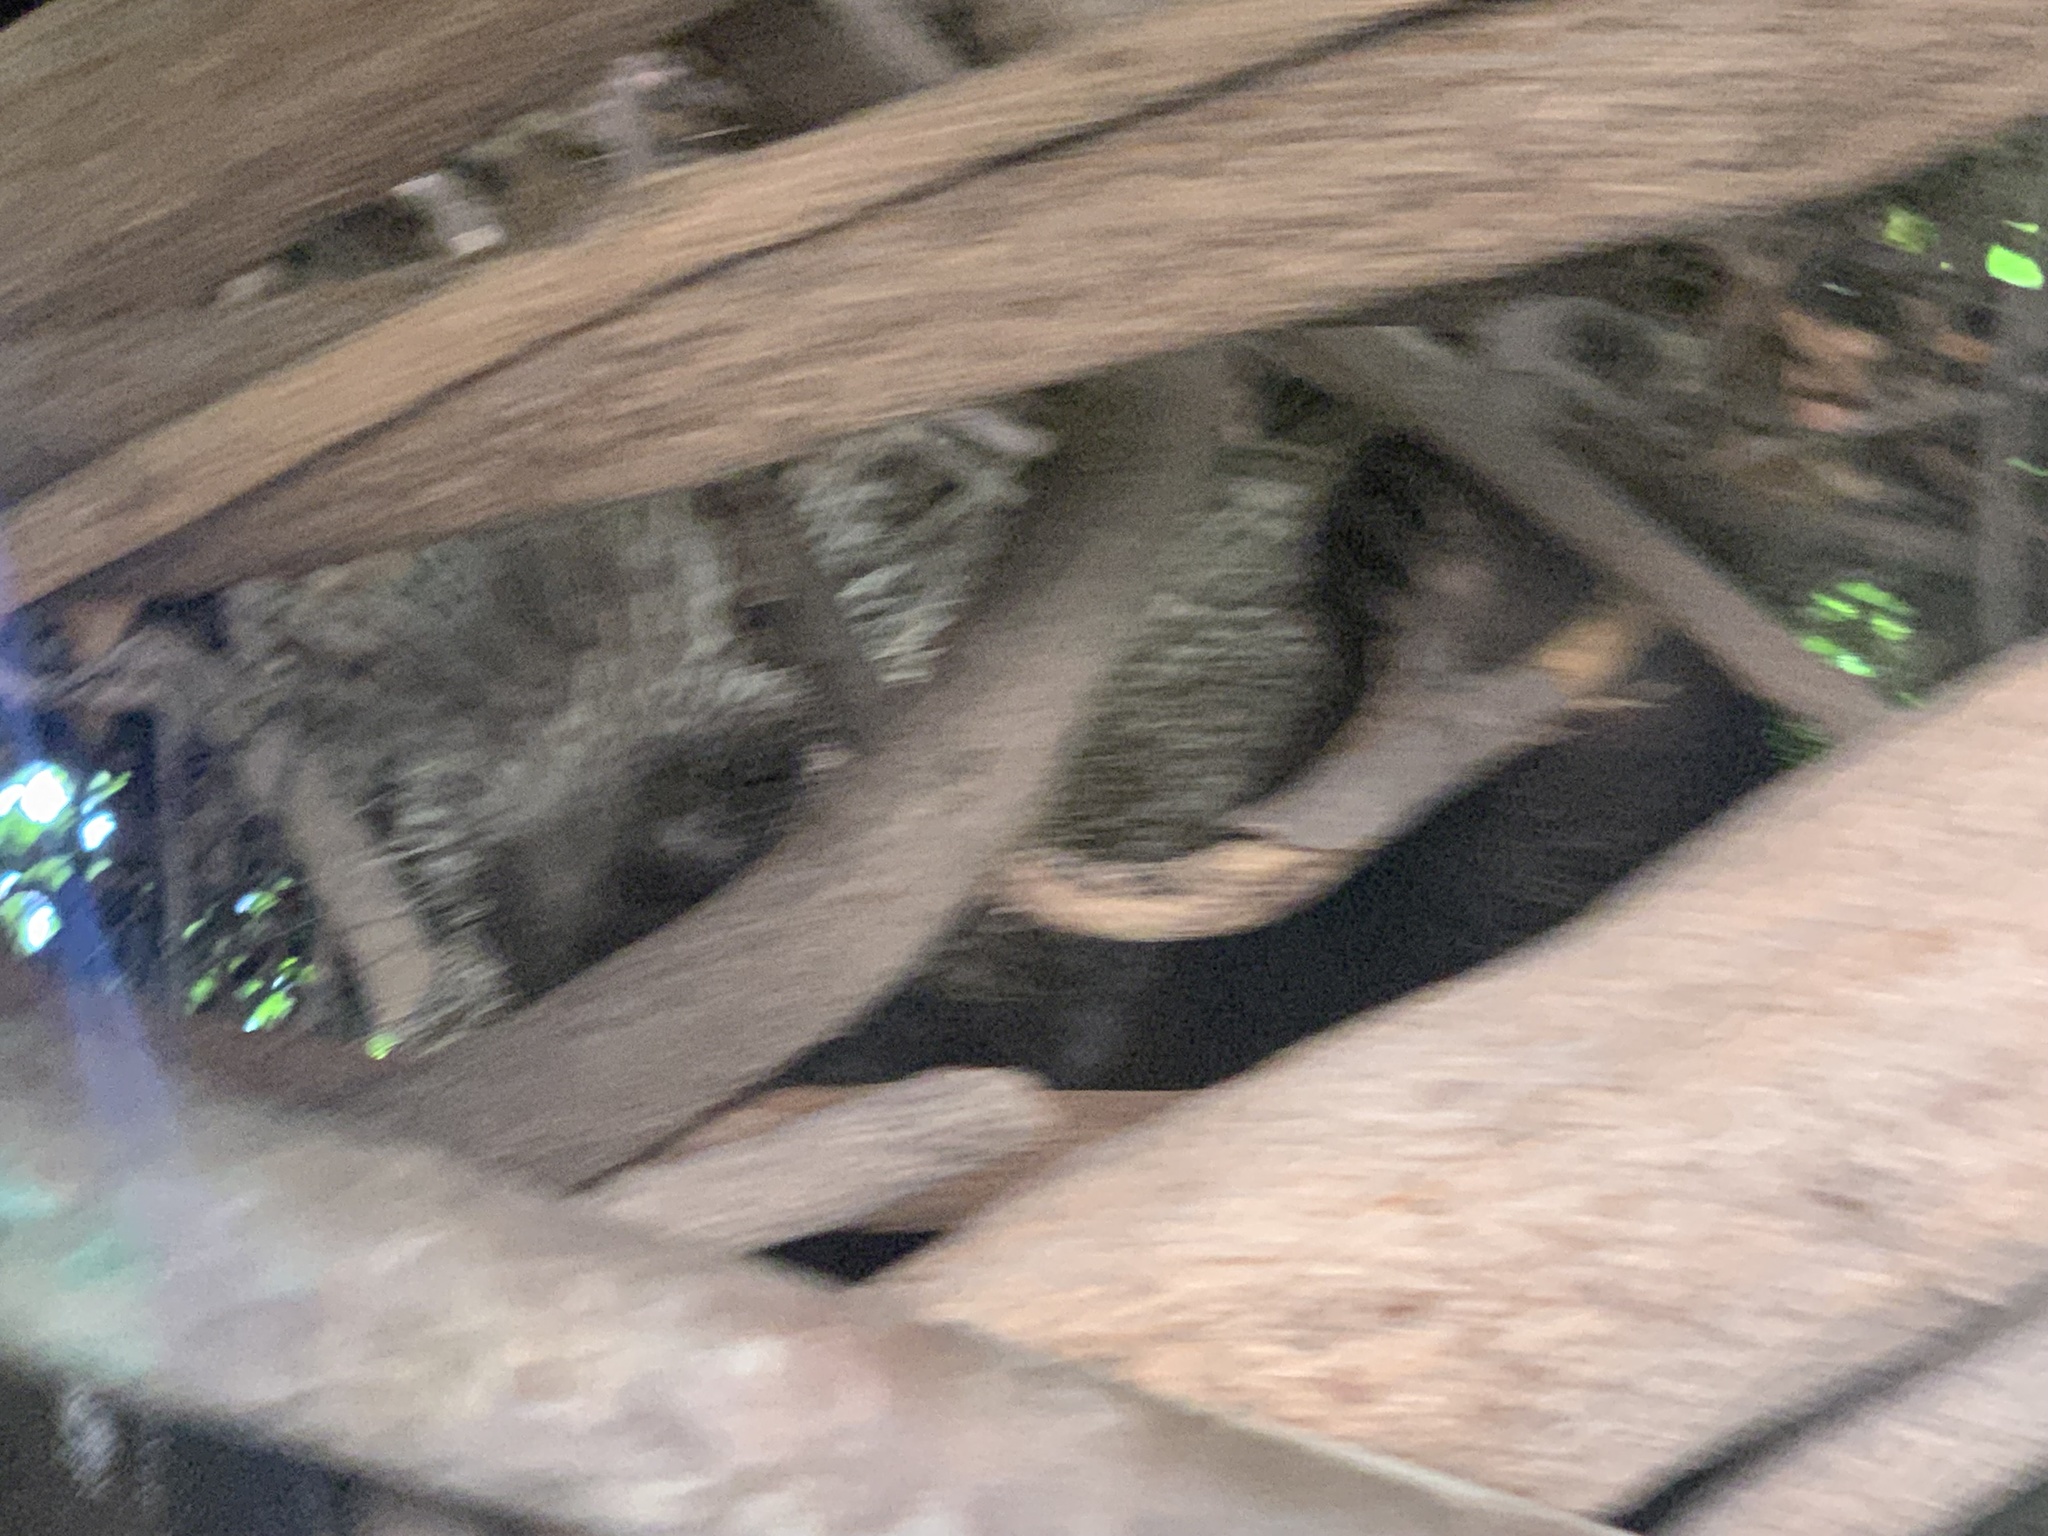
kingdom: Animalia
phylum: Chordata
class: Mammalia
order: Rodentia
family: Erethizontidae
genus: Erethizon
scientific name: Erethizon dorsatus
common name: North american porcupine
